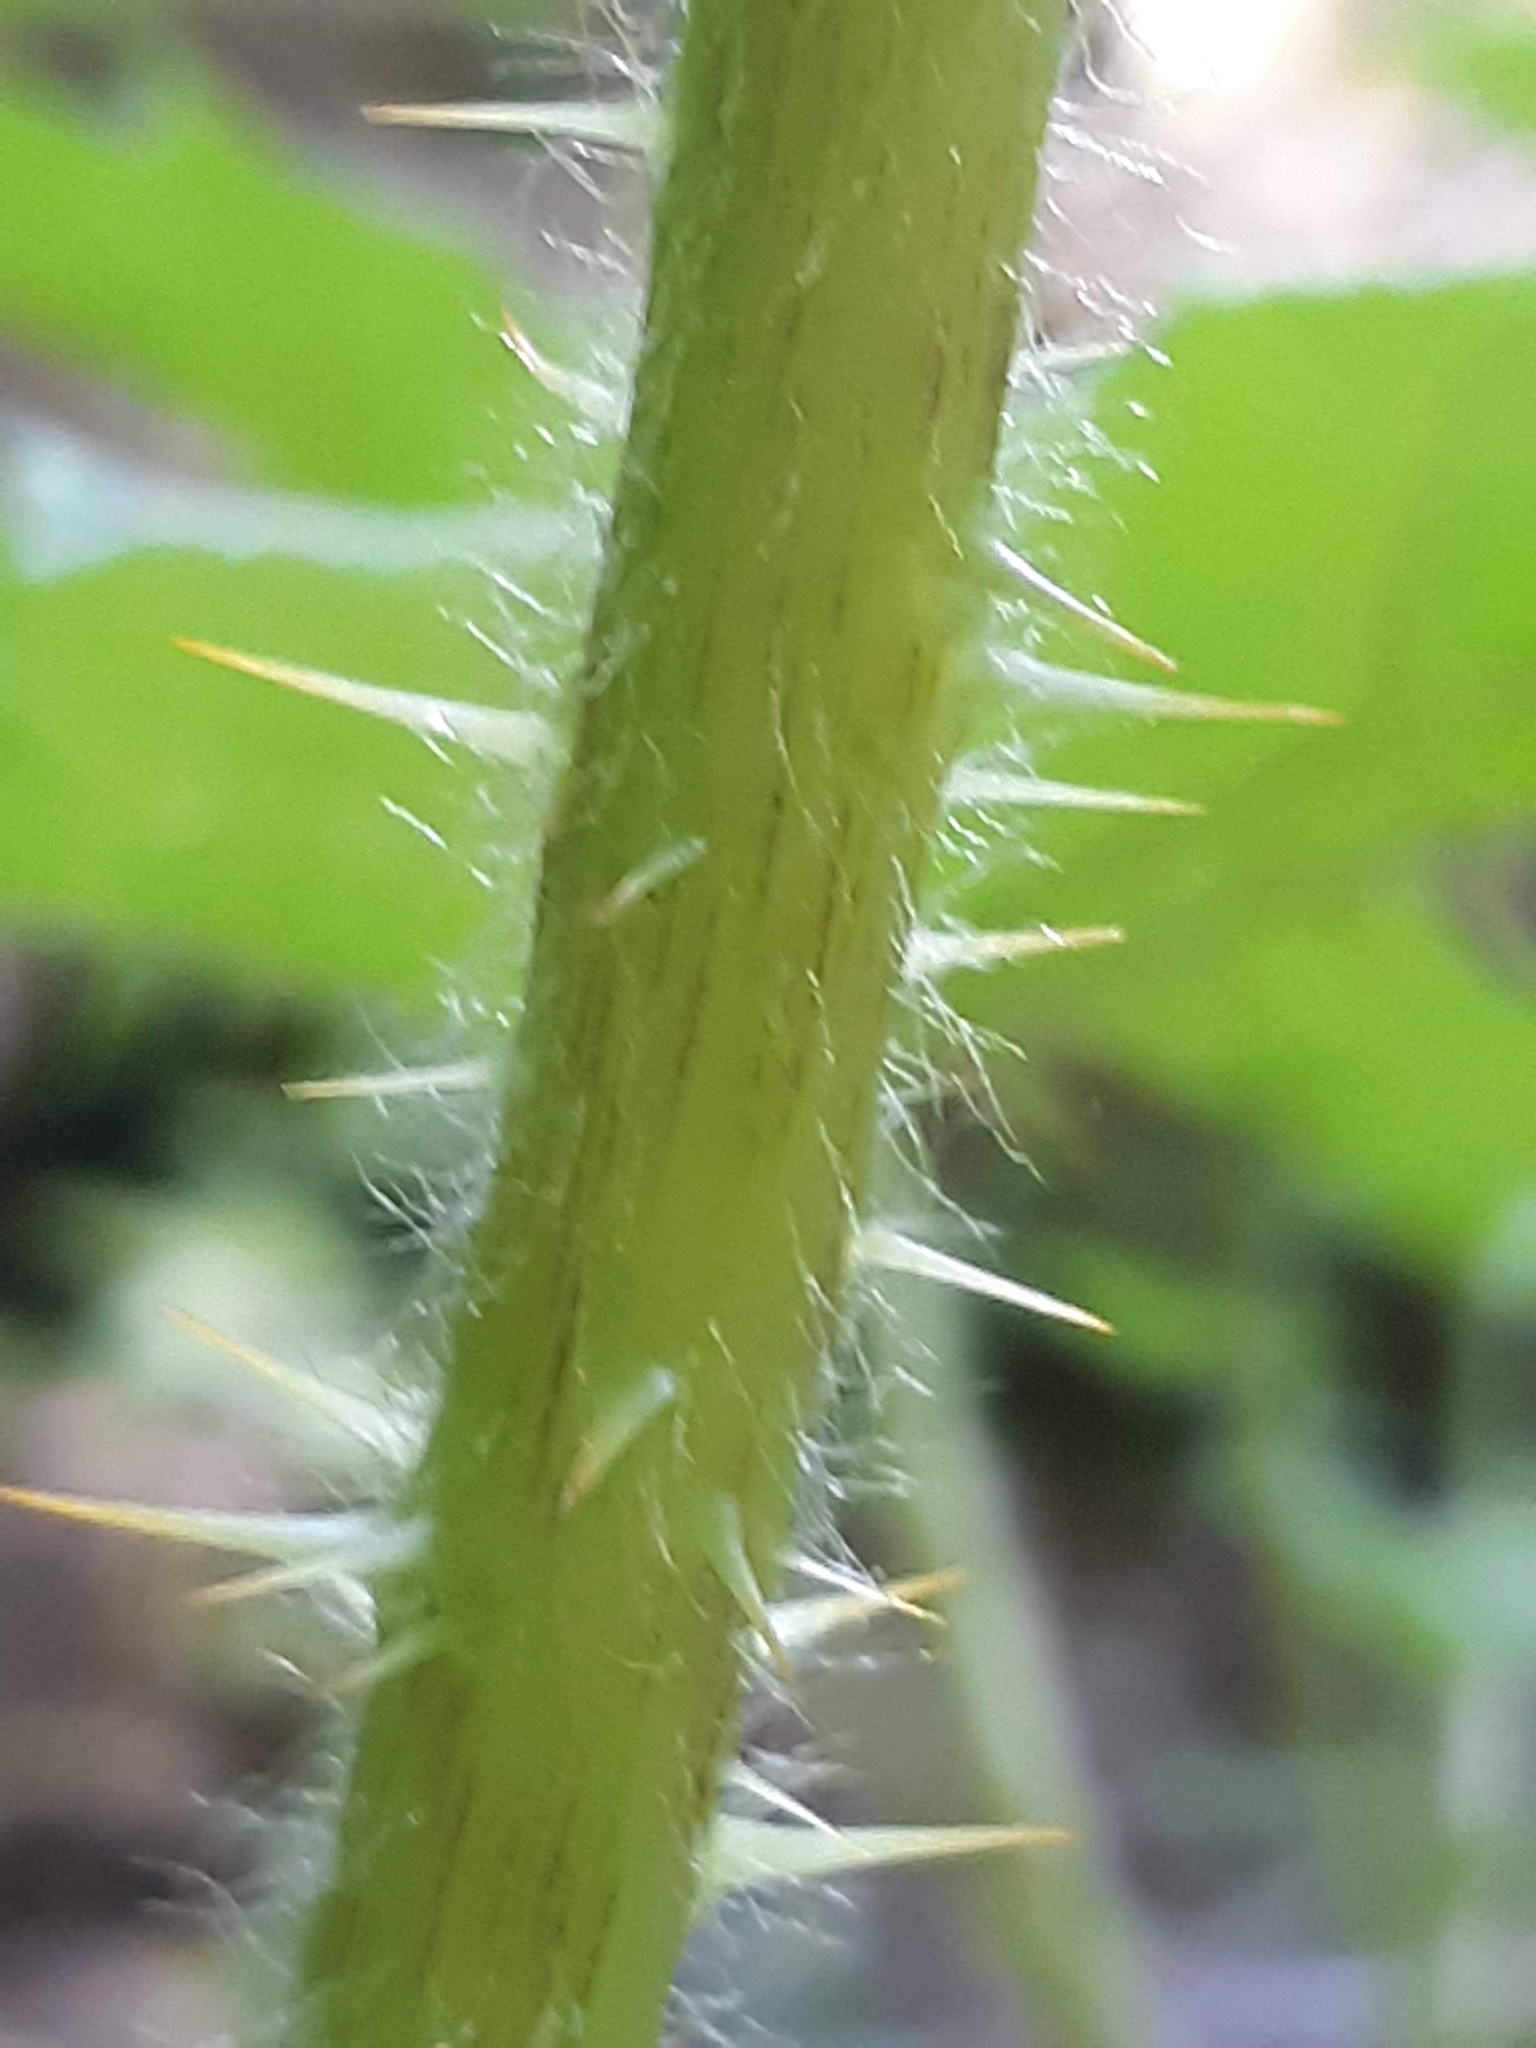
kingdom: Plantae
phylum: Tracheophyta
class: Magnoliopsida
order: Apiales
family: Araliaceae
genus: Oplopanax
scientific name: Oplopanax horridus
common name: Devil's walking-stick
